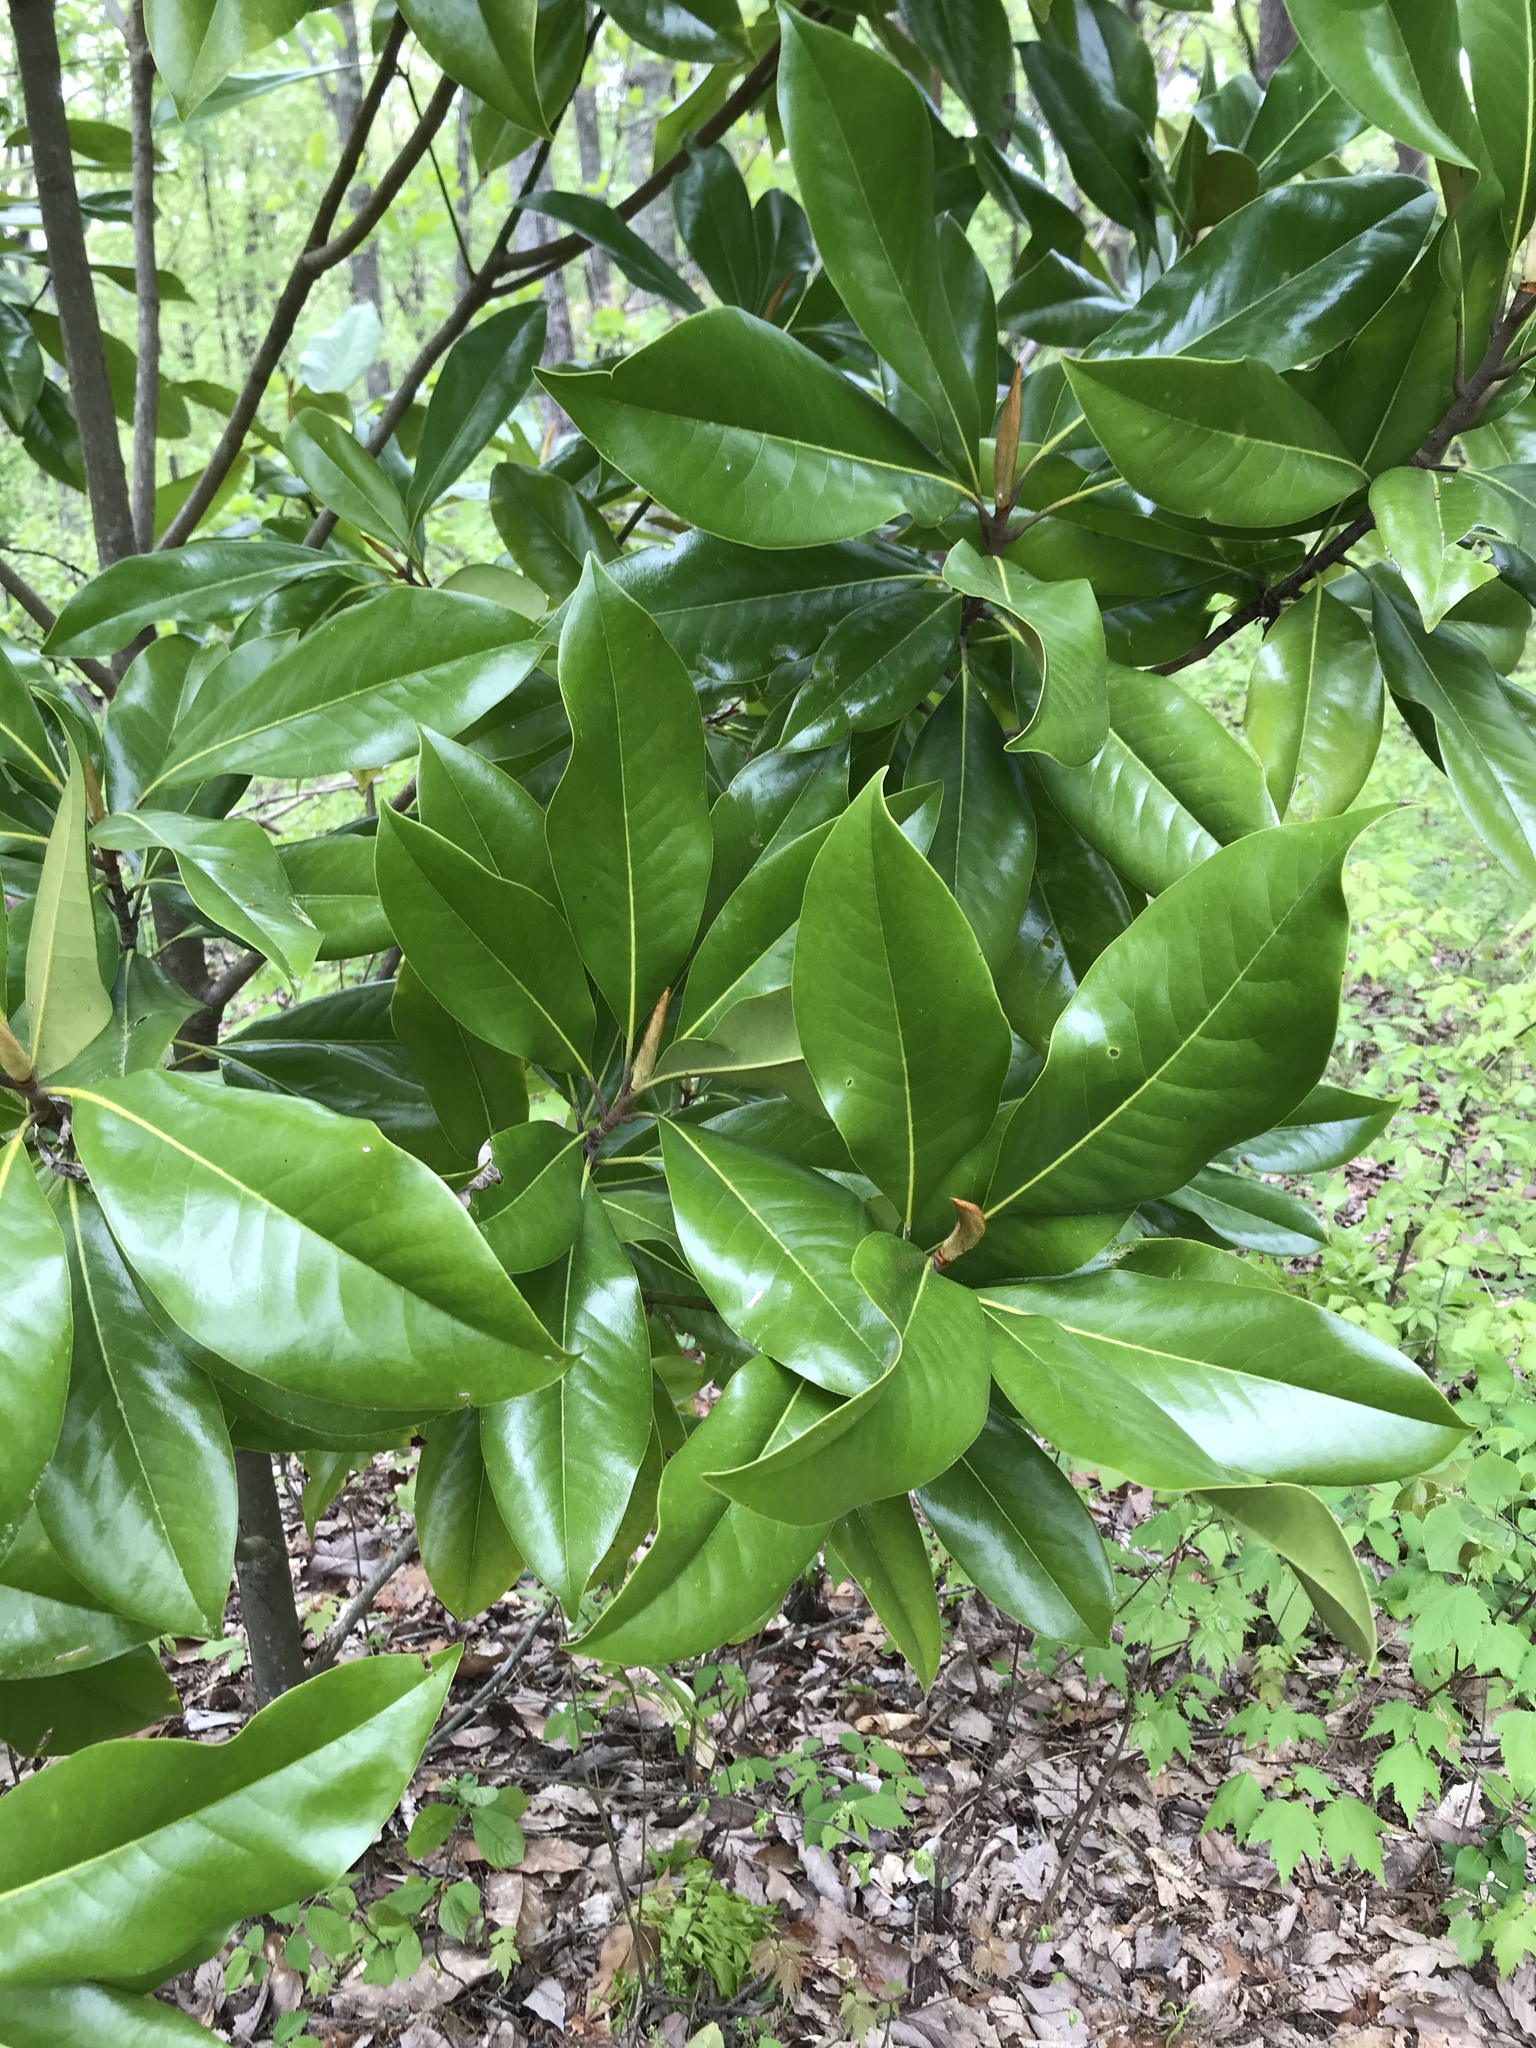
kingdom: Plantae
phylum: Tracheophyta
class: Magnoliopsida
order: Magnoliales
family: Magnoliaceae
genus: Magnolia
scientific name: Magnolia grandiflora
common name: Southern magnolia
